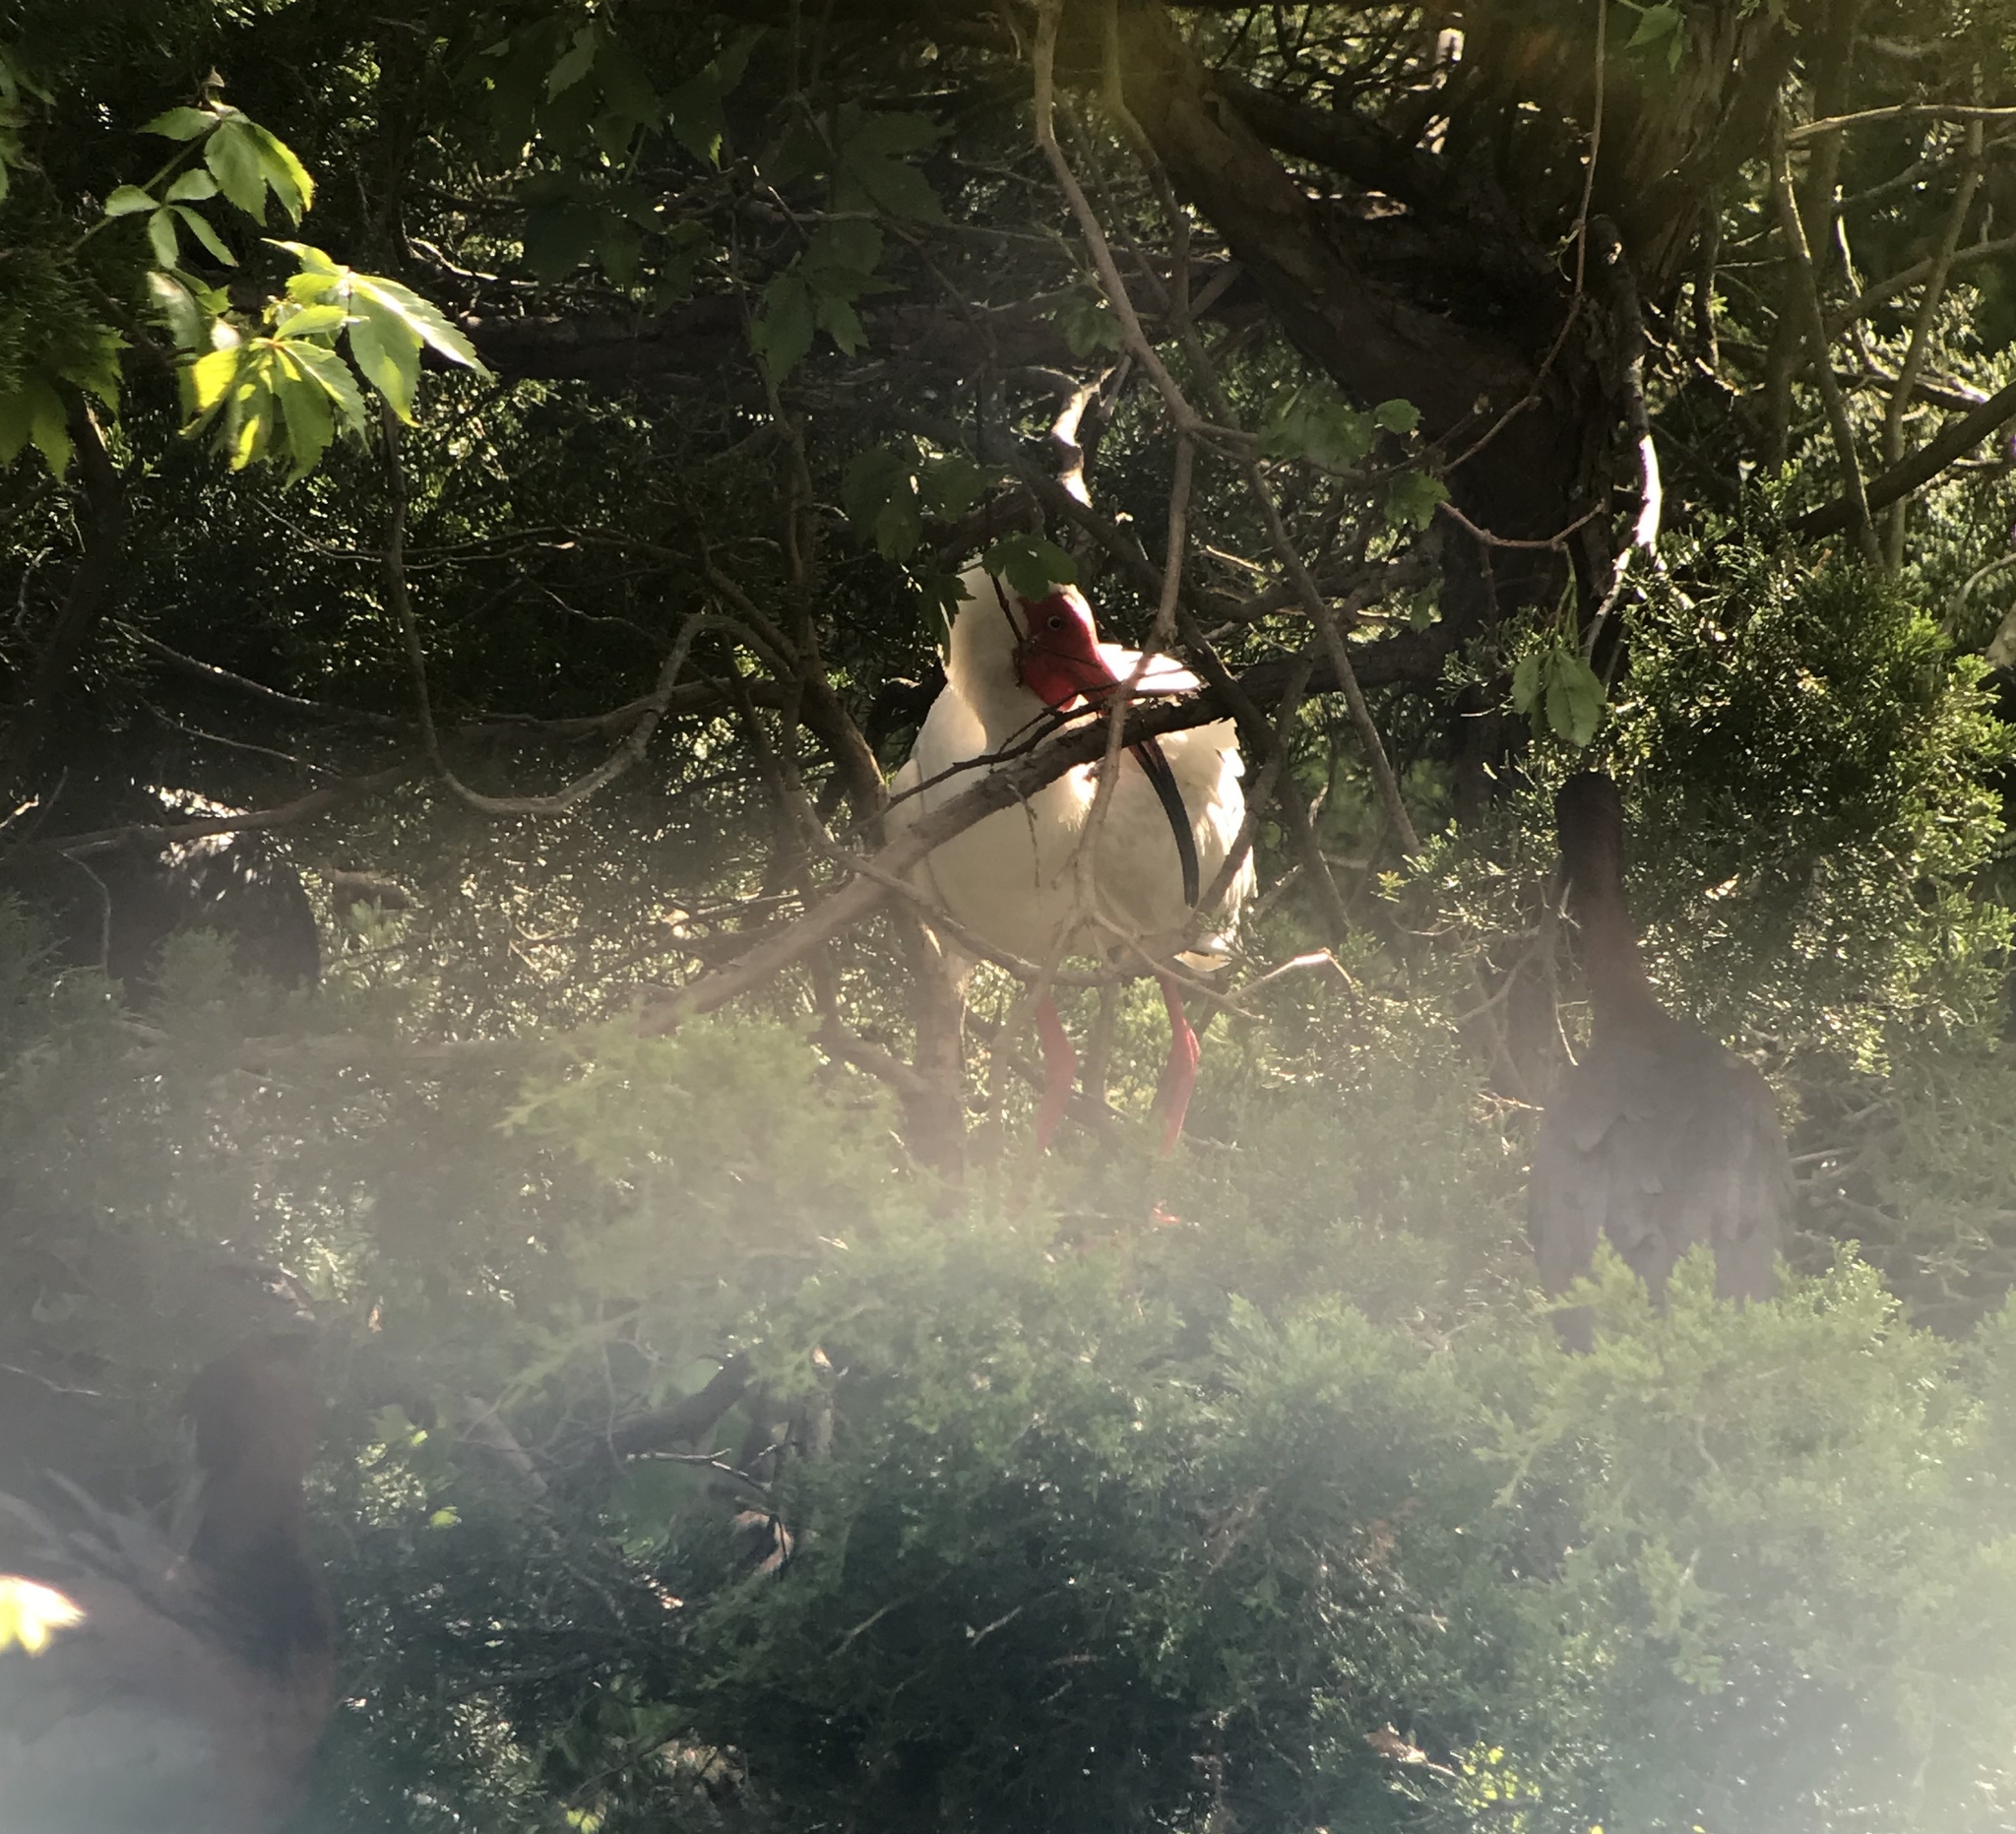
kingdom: Animalia
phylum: Chordata
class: Aves
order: Pelecaniformes
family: Threskiornithidae
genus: Eudocimus
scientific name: Eudocimus albus
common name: White ibis
